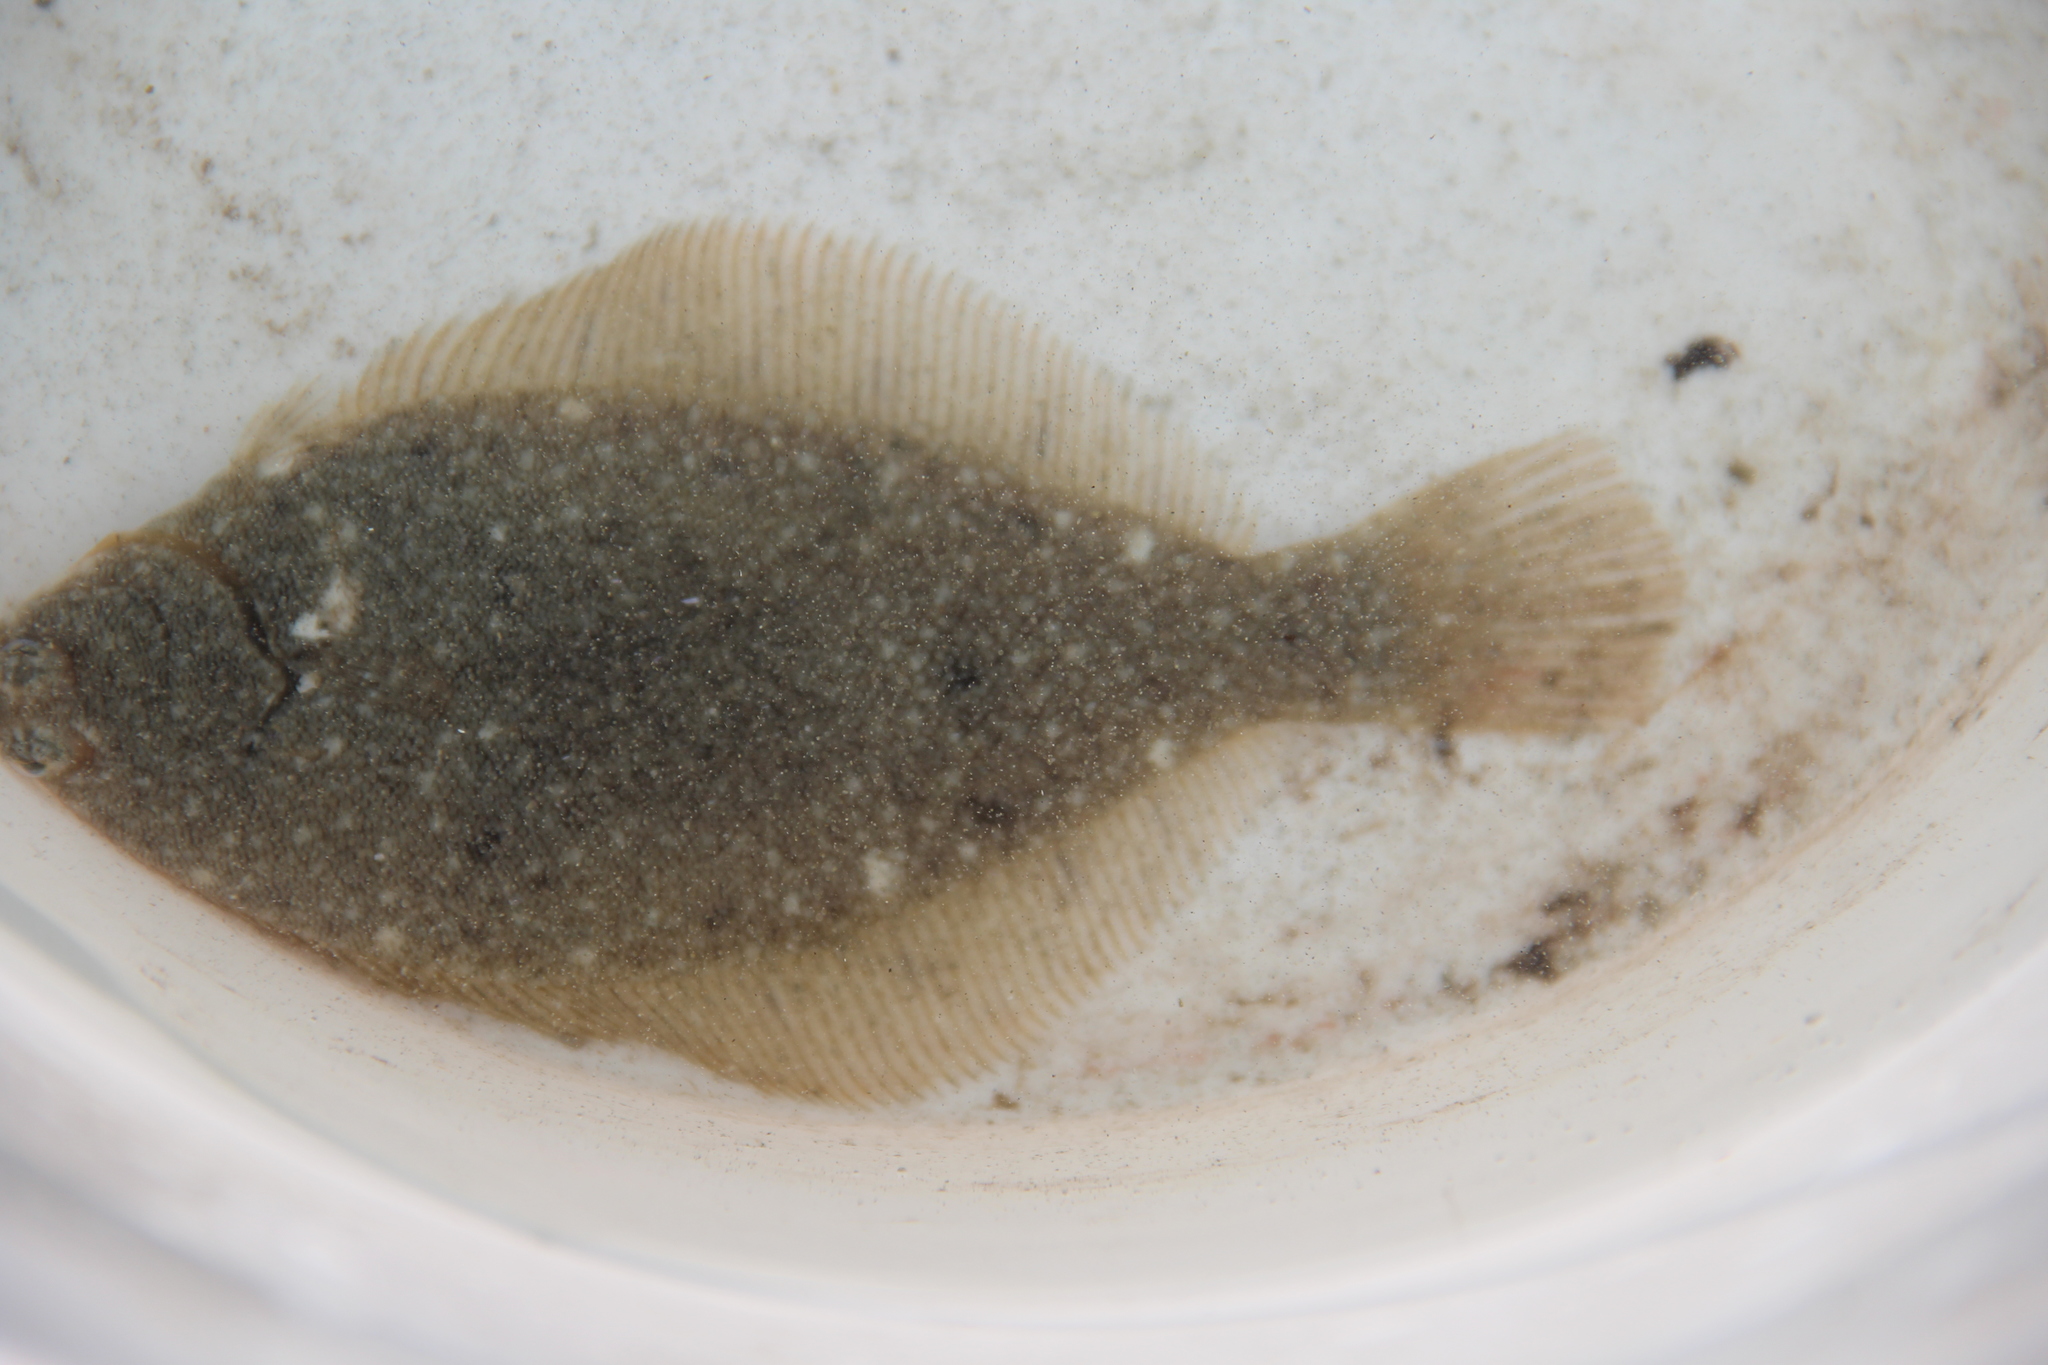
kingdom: Animalia
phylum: Chordata
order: Pleuronectiformes
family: Pleuronectidae
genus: Pseudopleuronectes
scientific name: Pseudopleuronectes americanus
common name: Black backs
